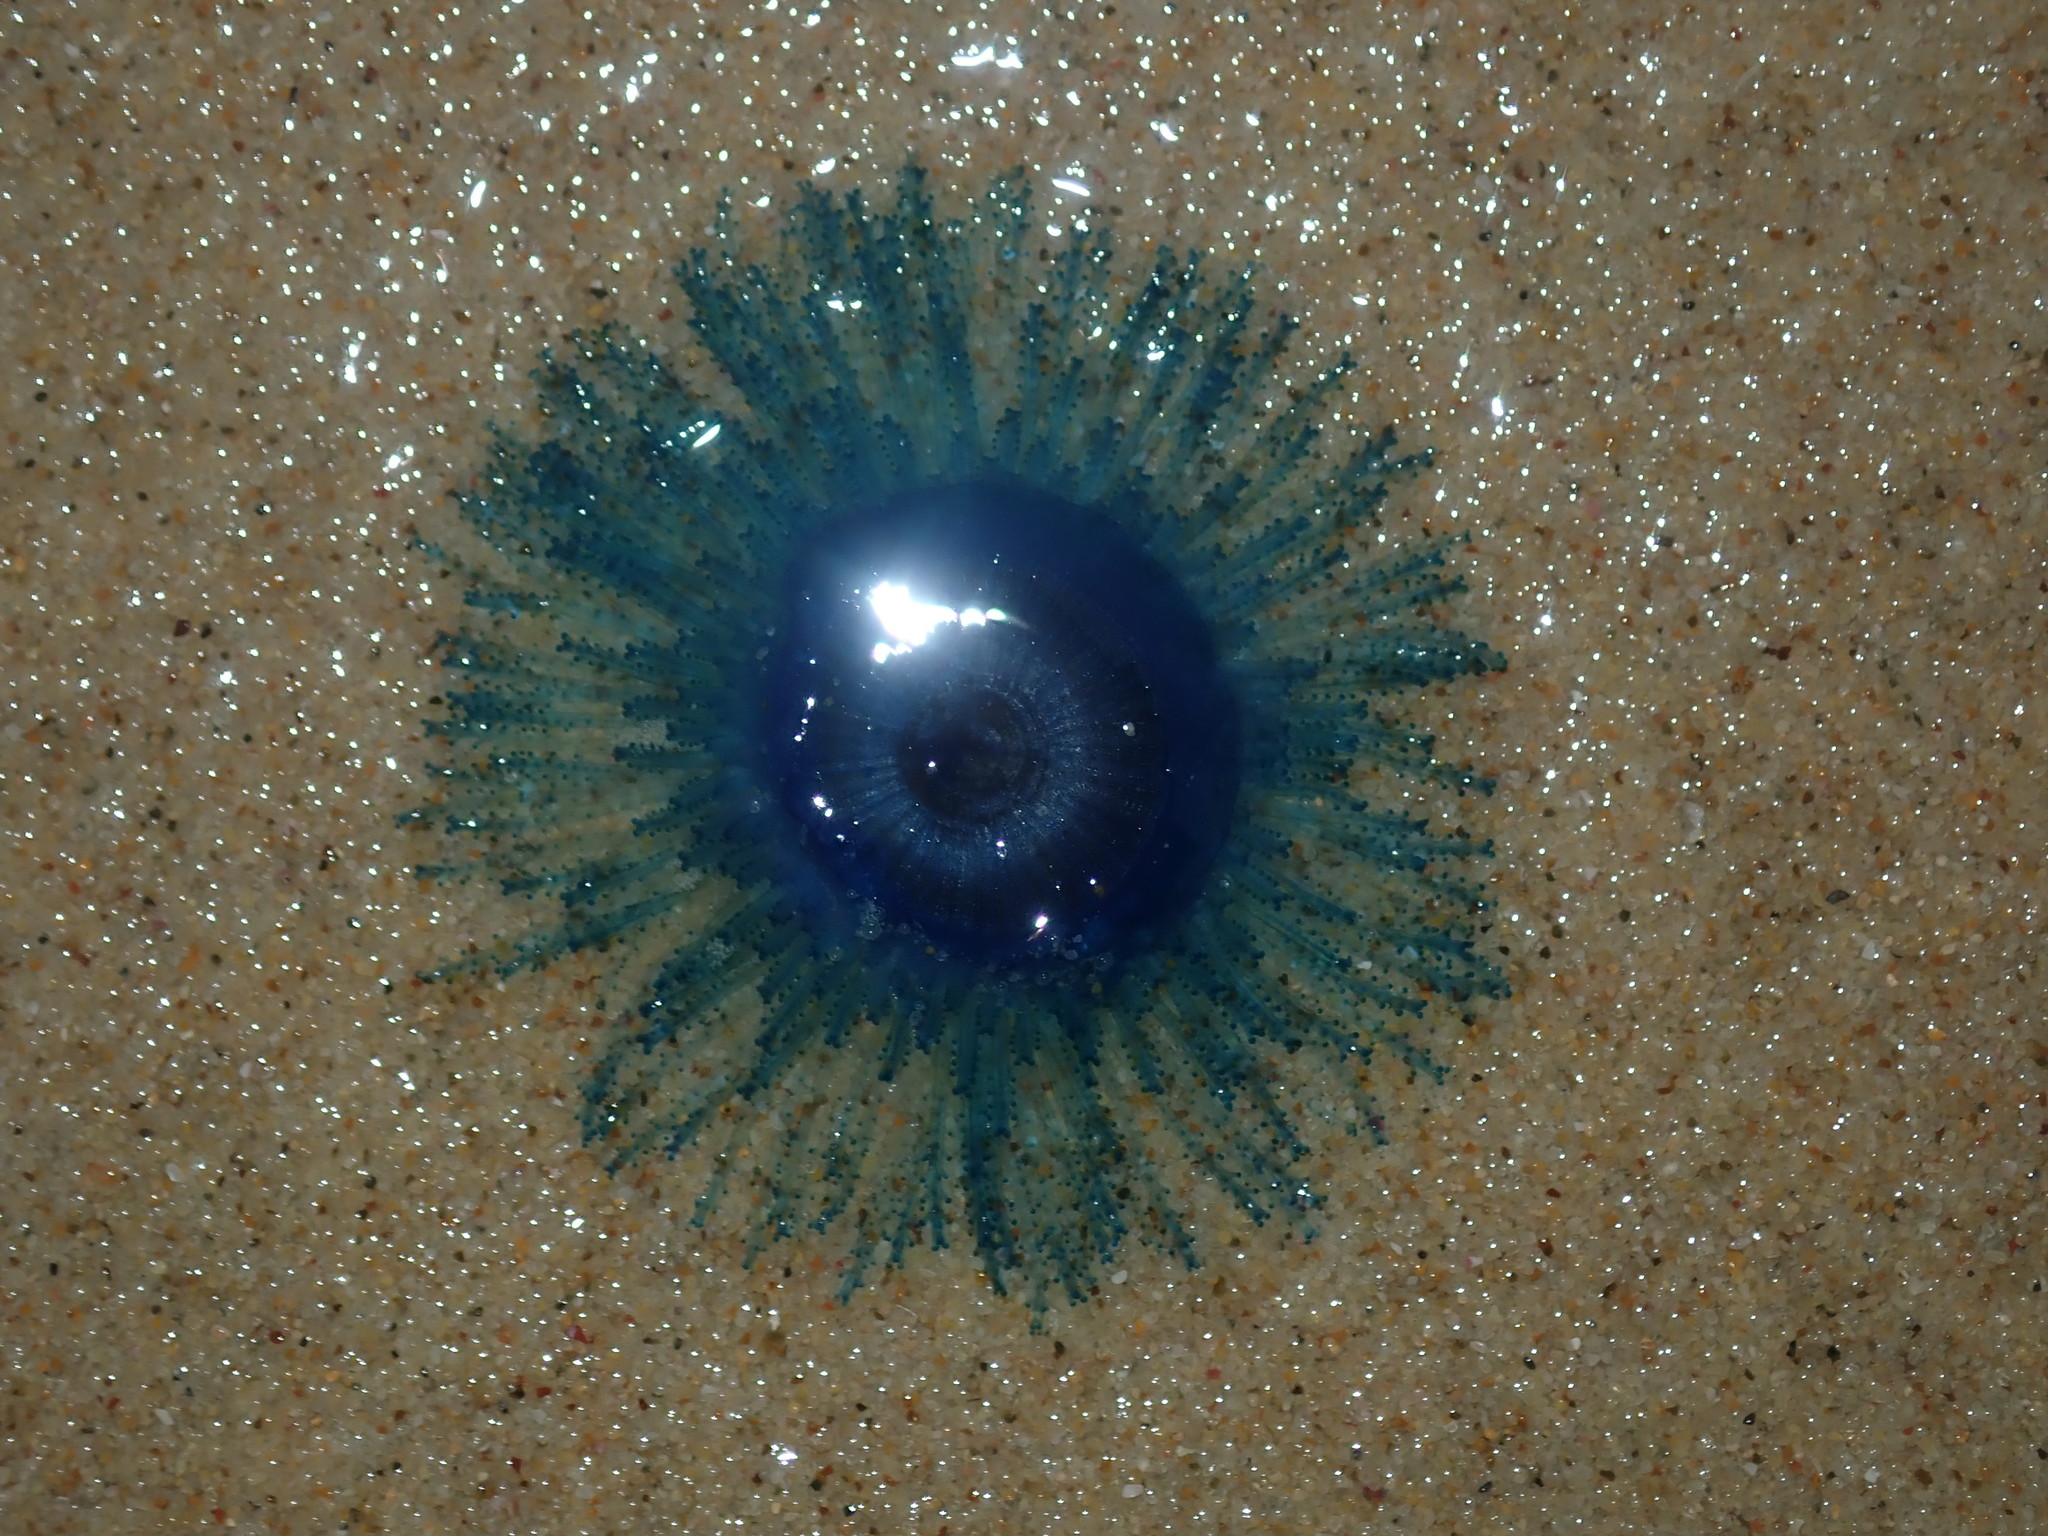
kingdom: Animalia
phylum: Cnidaria
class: Hydrozoa
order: Anthoathecata
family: Porpitidae
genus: Porpita
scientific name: Porpita porpita
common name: Blue button
